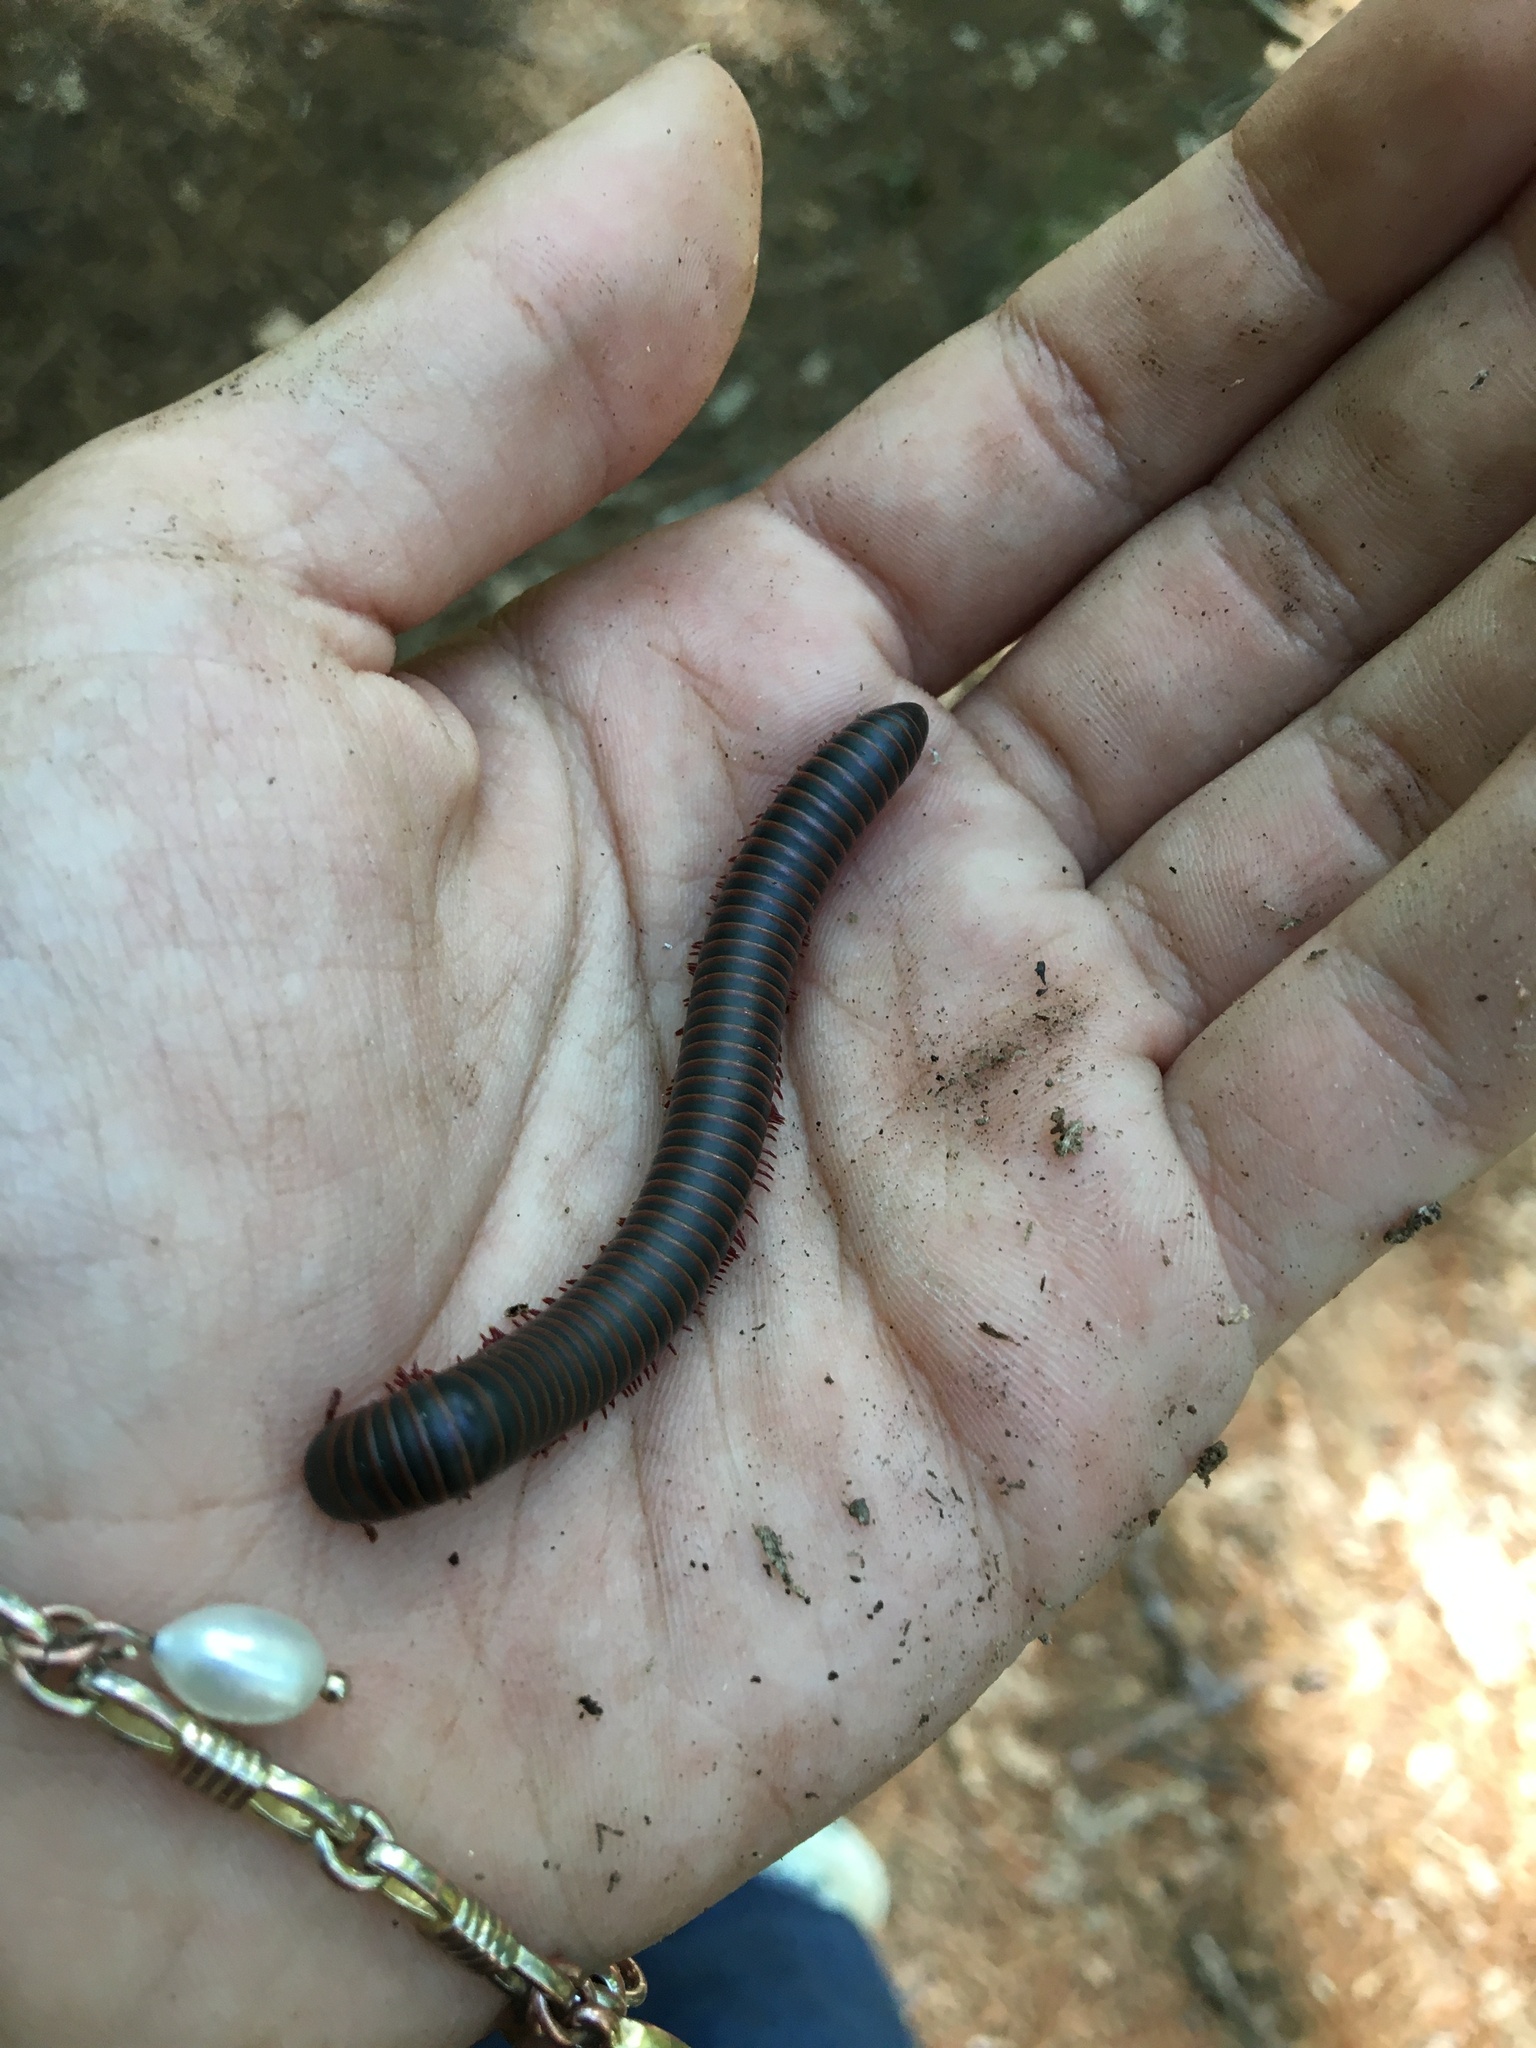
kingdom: Animalia
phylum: Arthropoda
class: Diplopoda
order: Spirobolida
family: Spirobolidae
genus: Narceus
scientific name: Narceus
